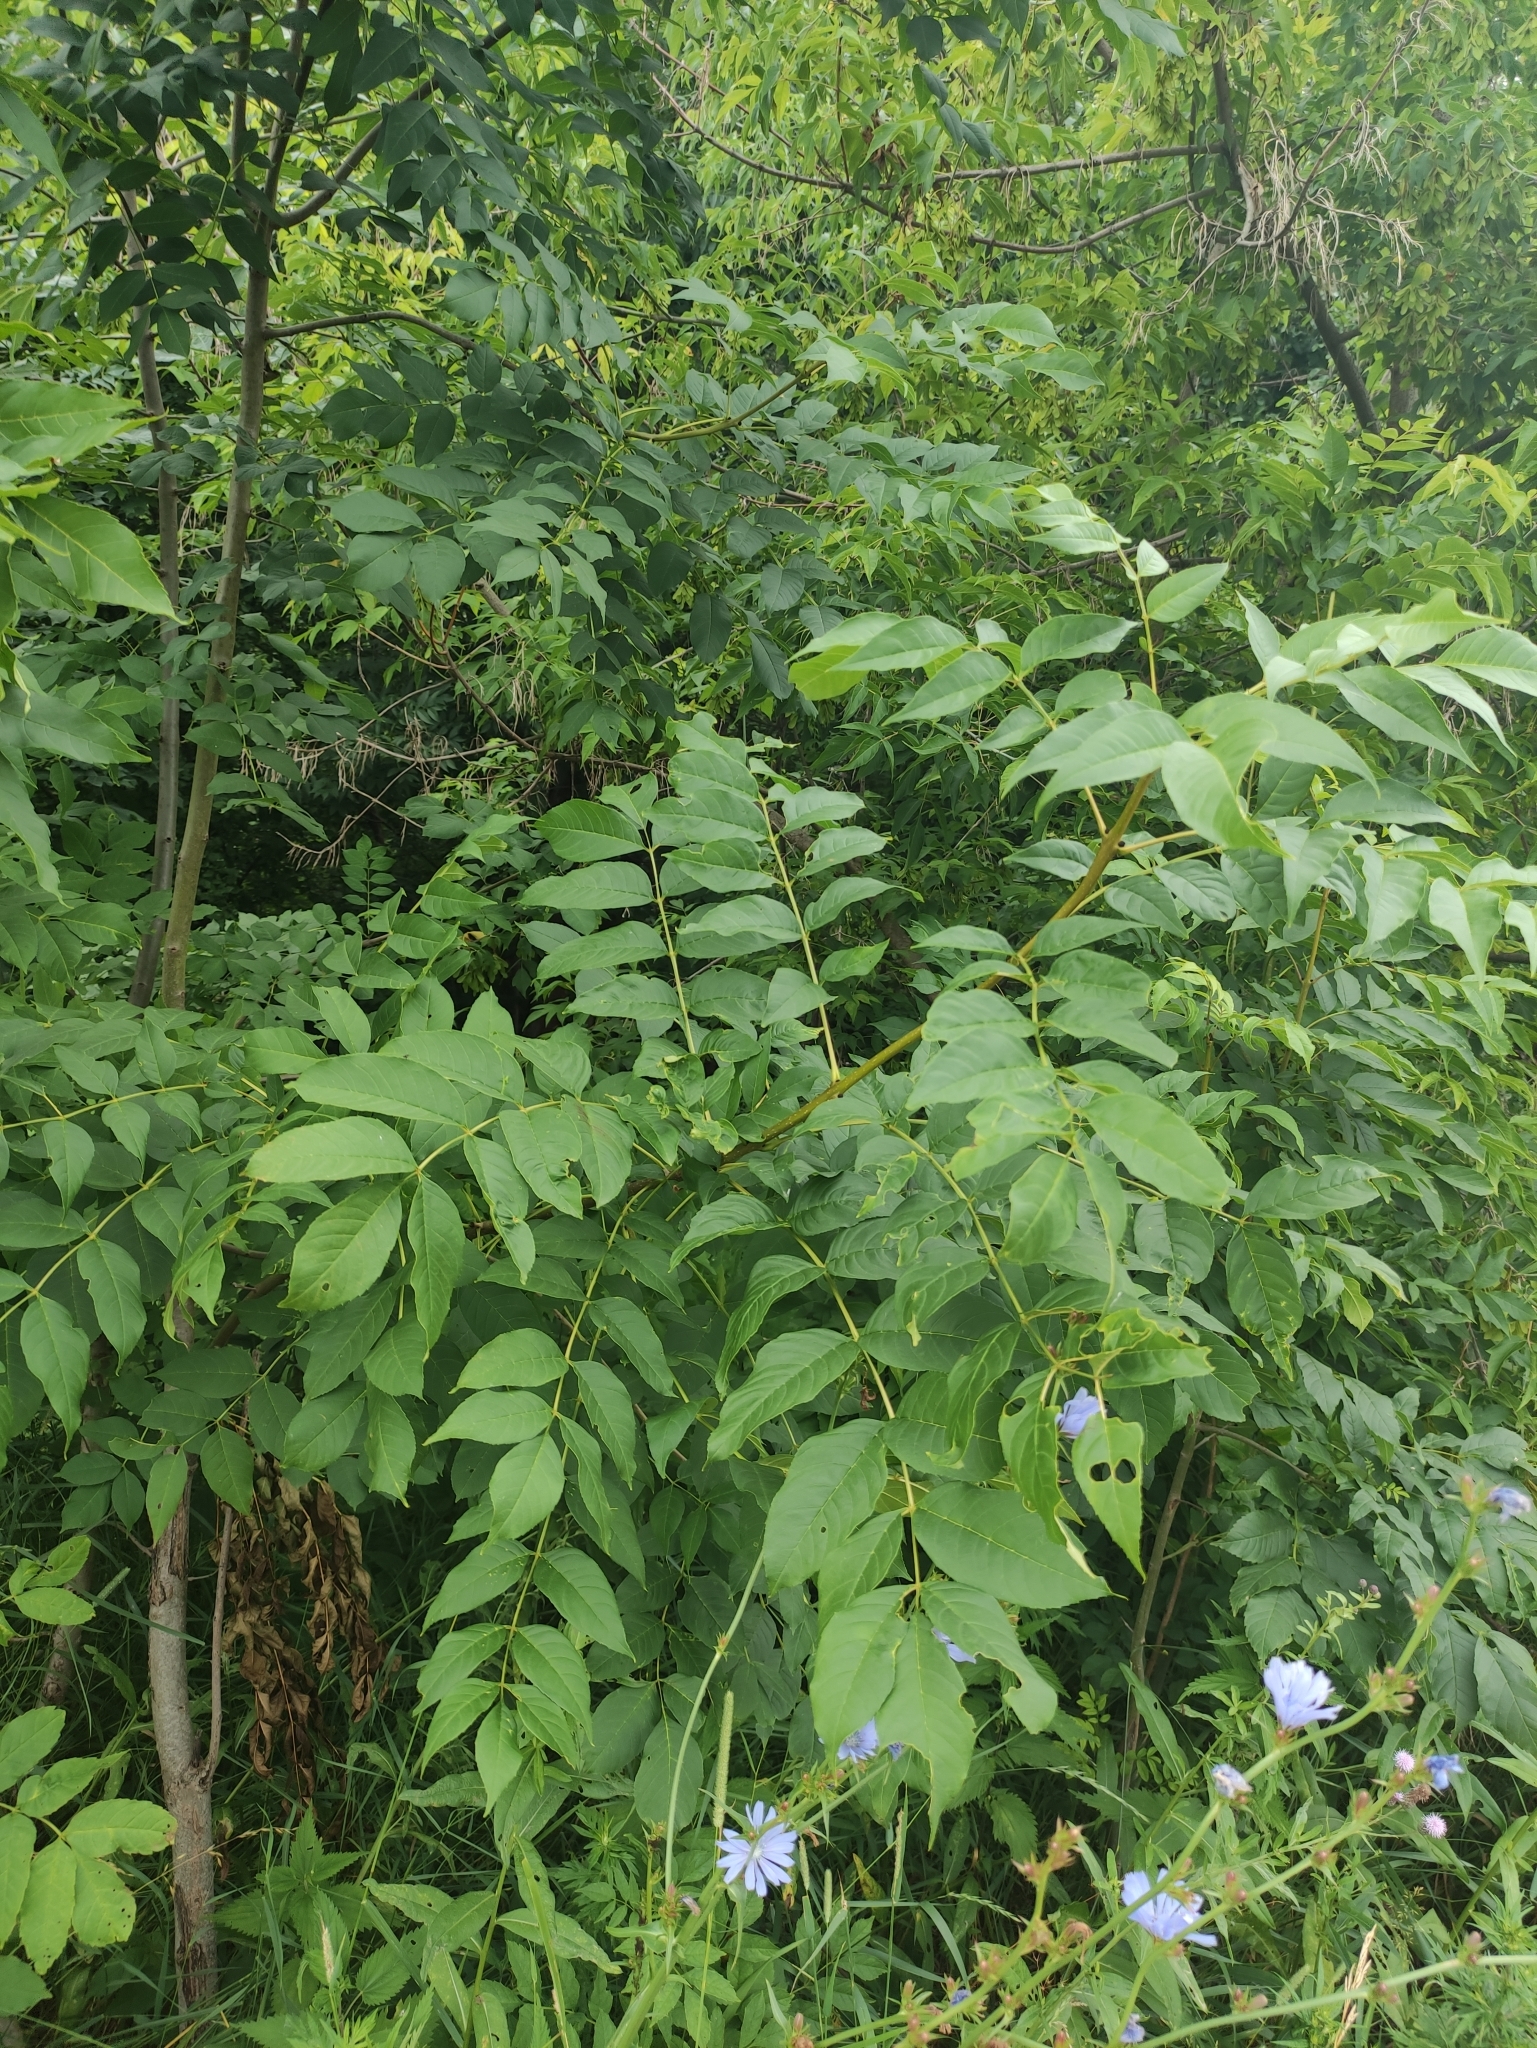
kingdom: Plantae
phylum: Tracheophyta
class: Magnoliopsida
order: Lamiales
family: Oleaceae
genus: Fraxinus
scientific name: Fraxinus excelsior
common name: European ash
